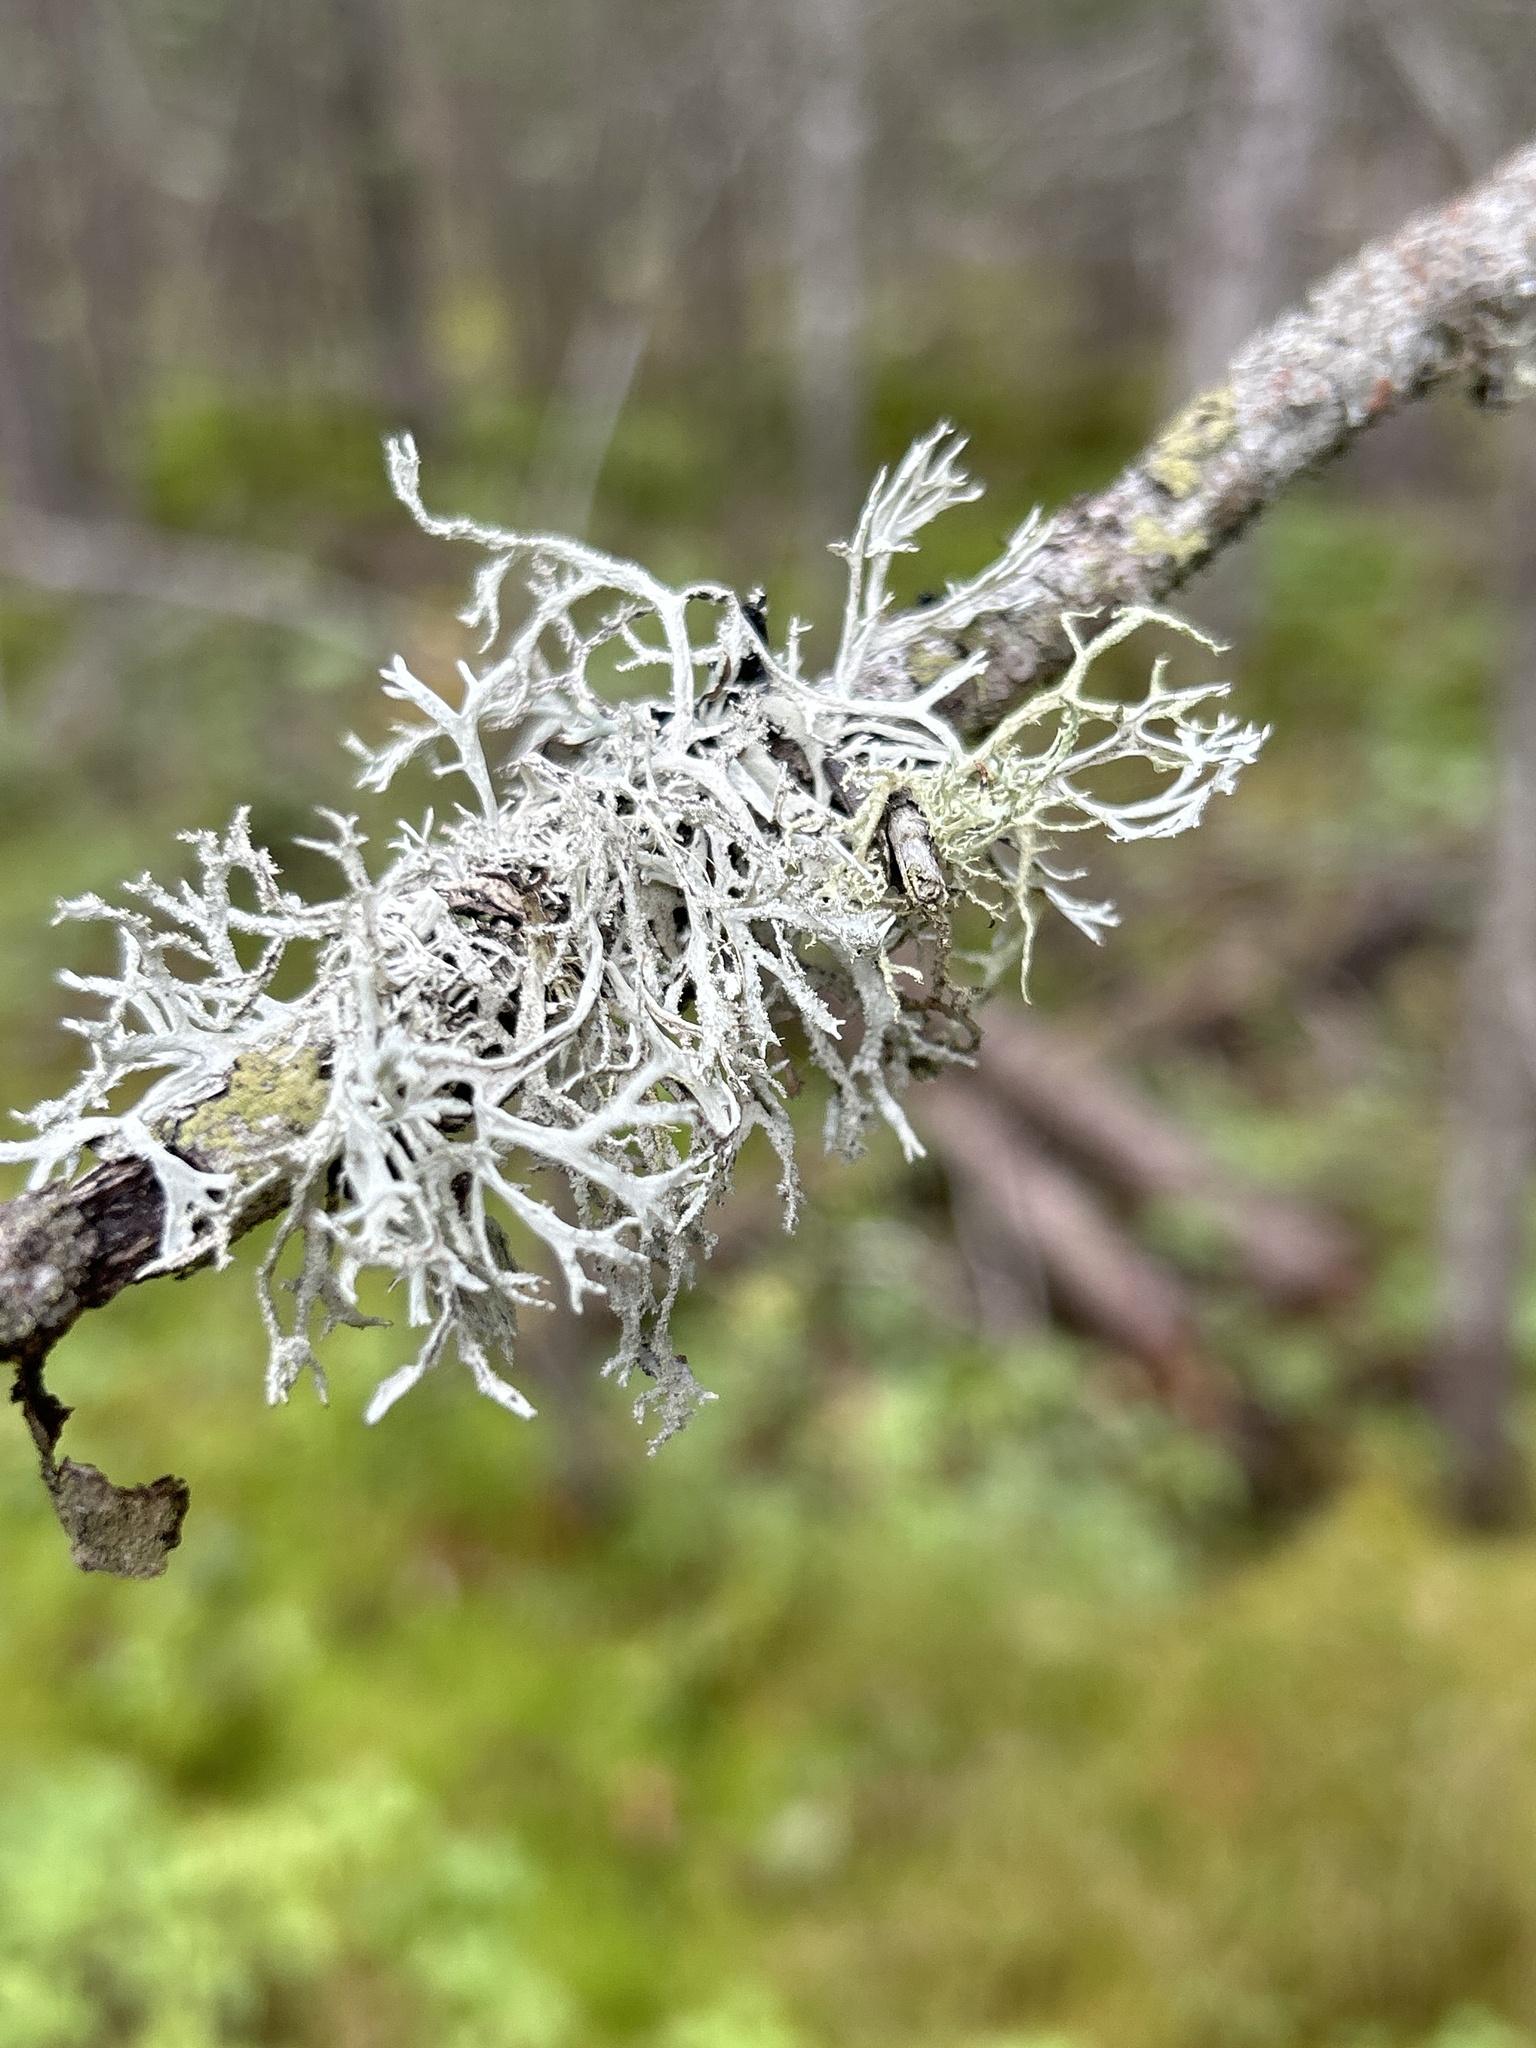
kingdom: Fungi
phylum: Ascomycota
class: Lecanoromycetes
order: Lecanorales
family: Parmeliaceae
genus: Pseudevernia
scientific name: Pseudevernia consocians
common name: Common antler lichen
